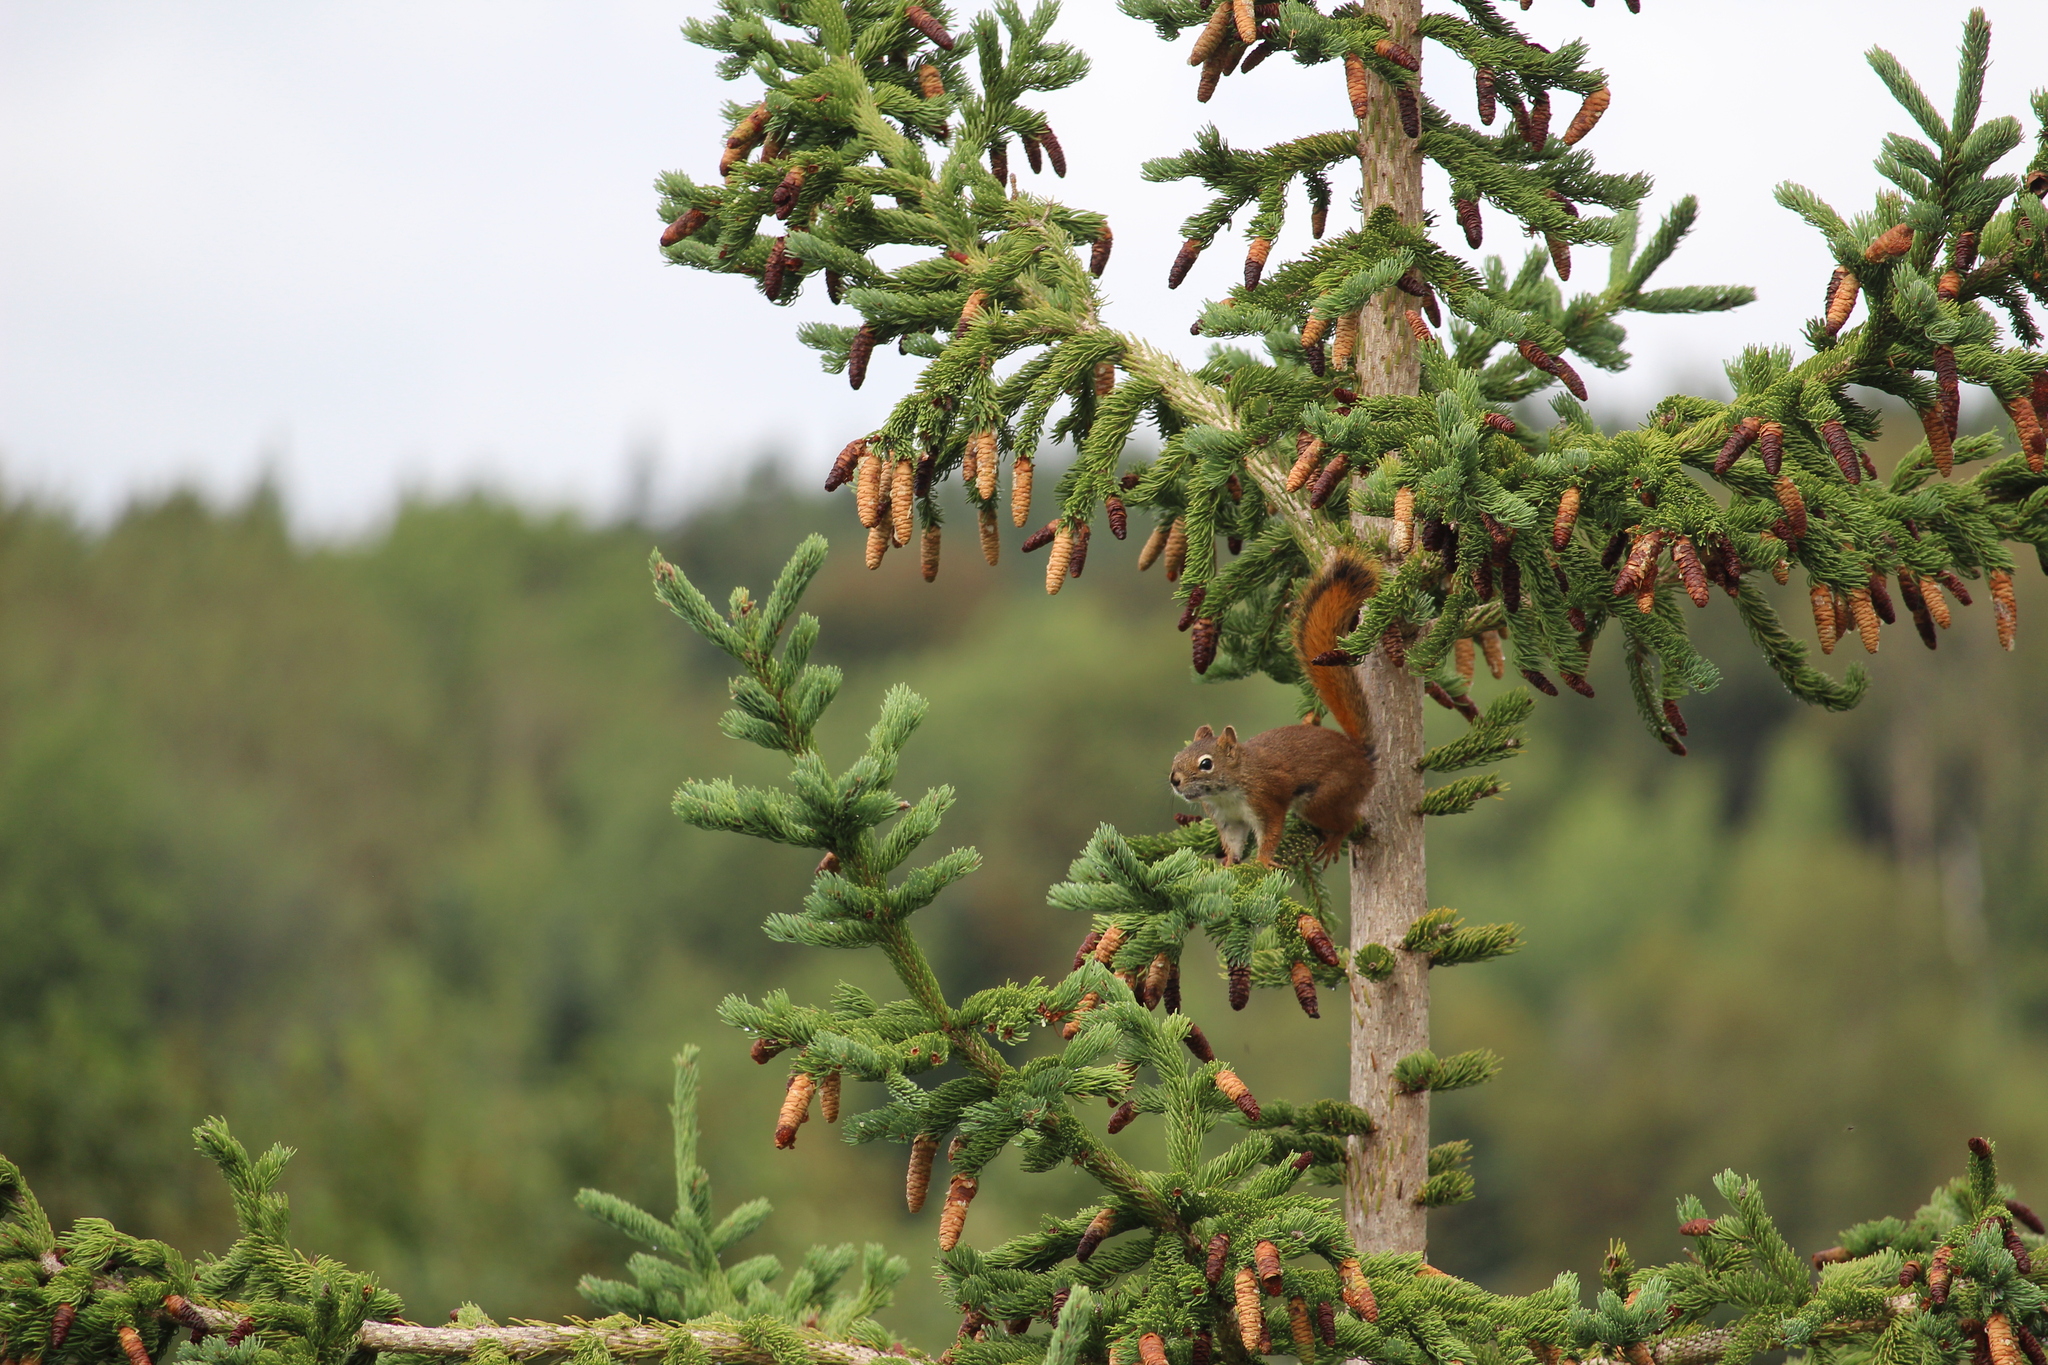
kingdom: Animalia
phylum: Chordata
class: Mammalia
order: Rodentia
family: Sciuridae
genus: Tamiasciurus
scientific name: Tamiasciurus hudsonicus
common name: Red squirrel
